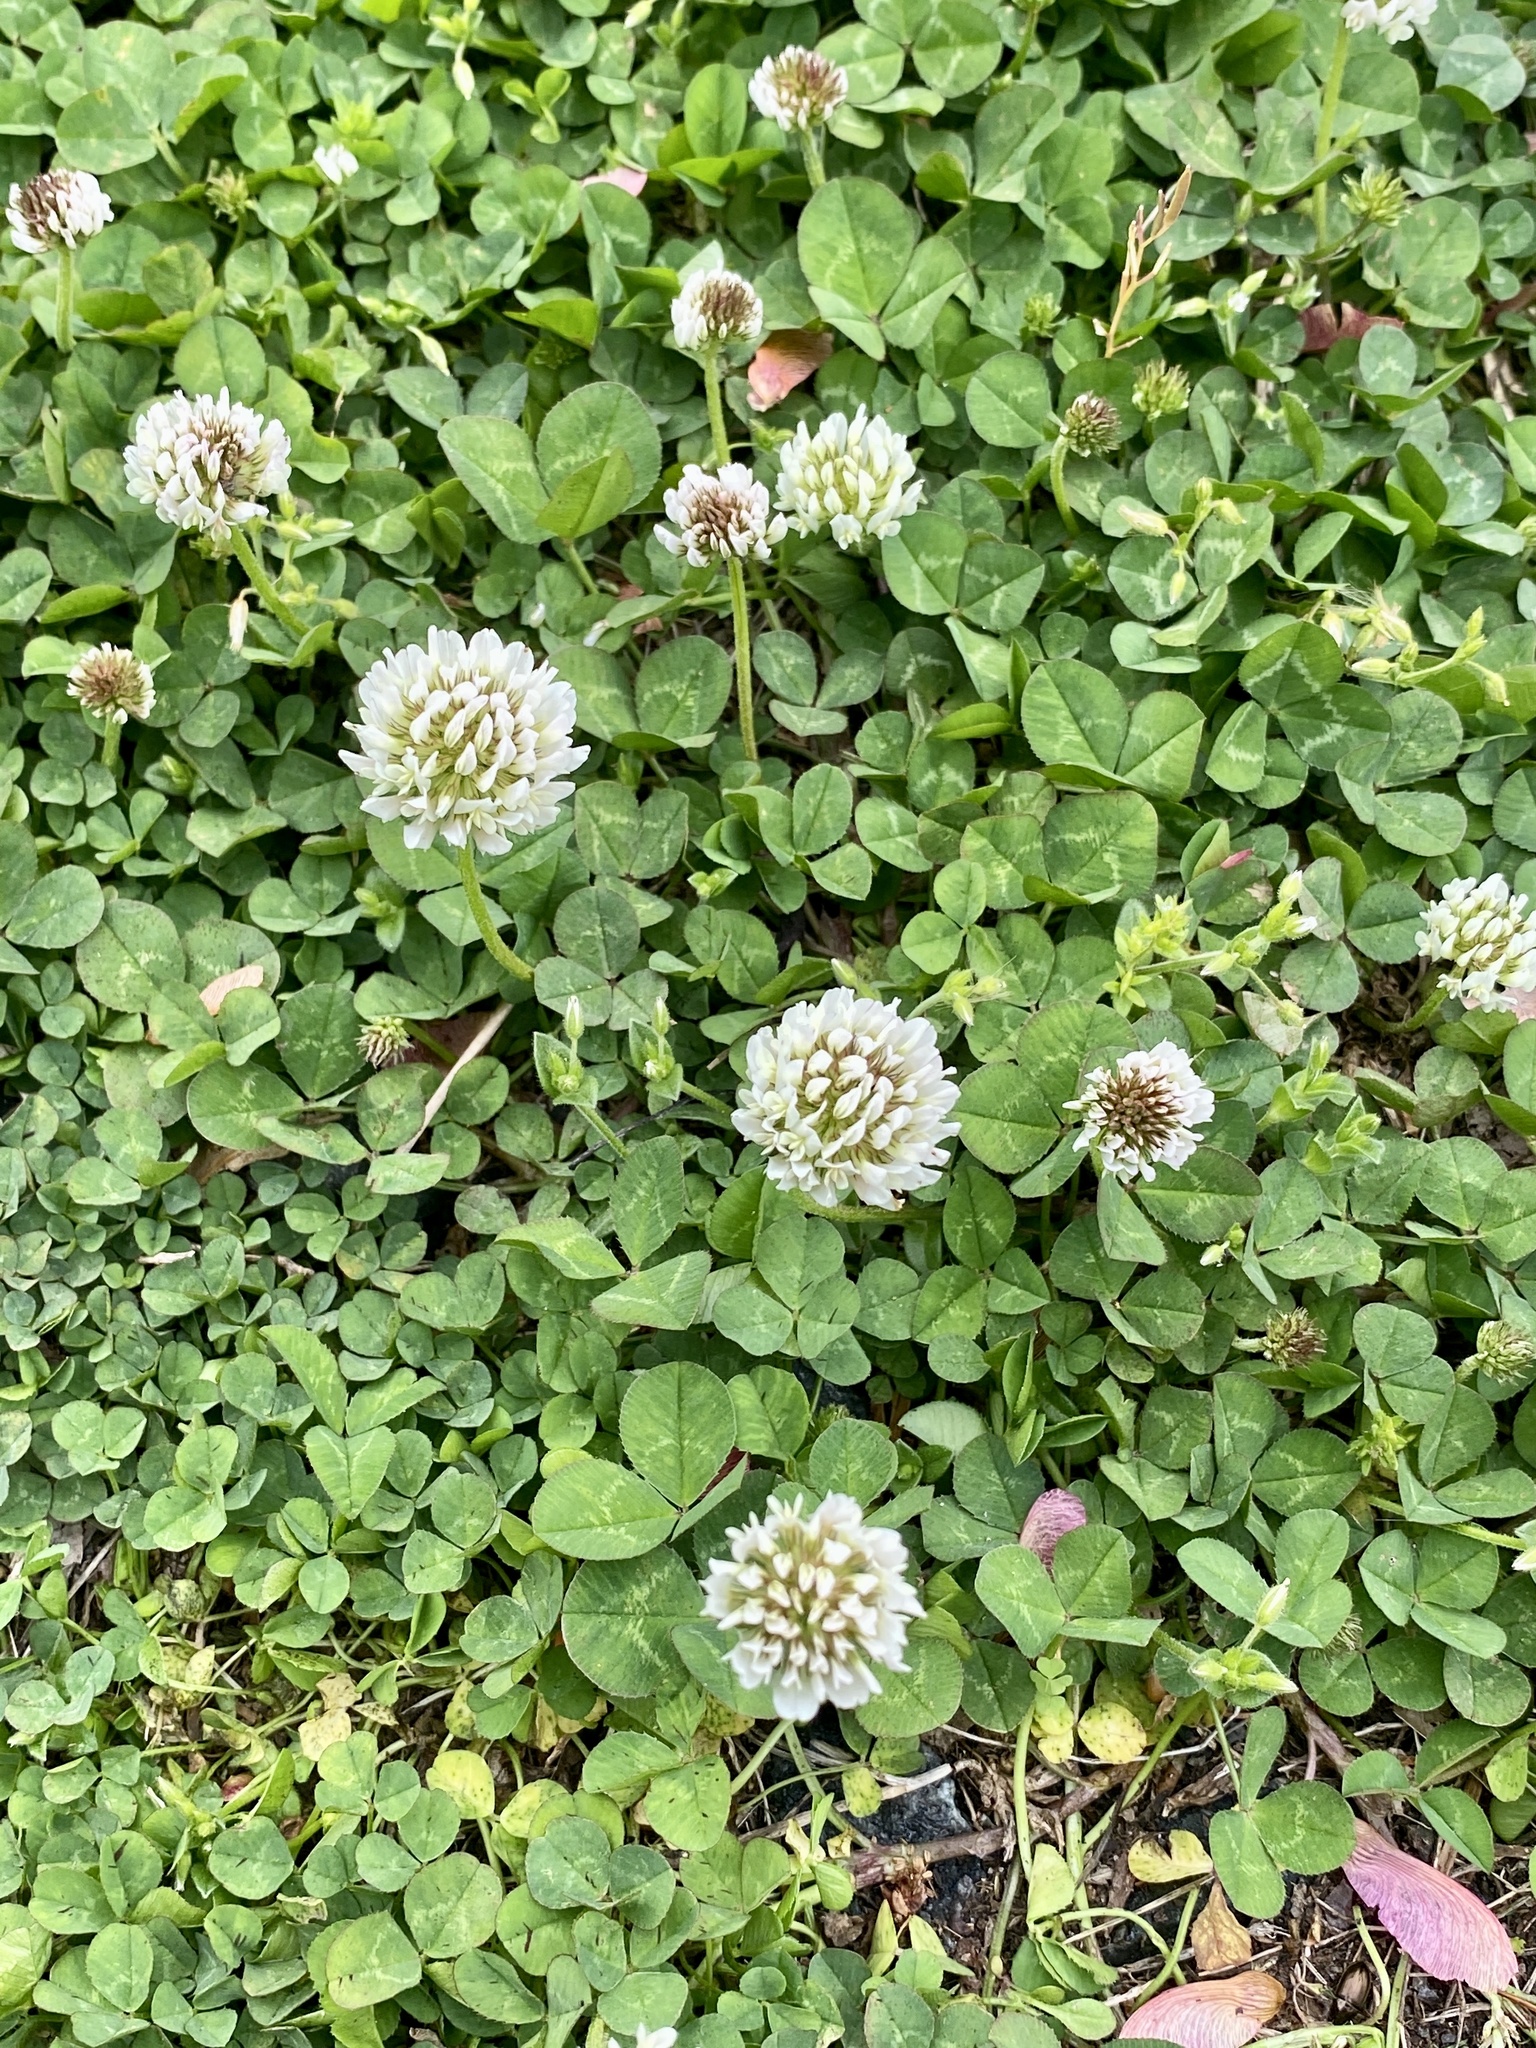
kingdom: Plantae
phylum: Tracheophyta
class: Magnoliopsida
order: Fabales
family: Fabaceae
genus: Trifolium
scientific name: Trifolium repens
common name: White clover
